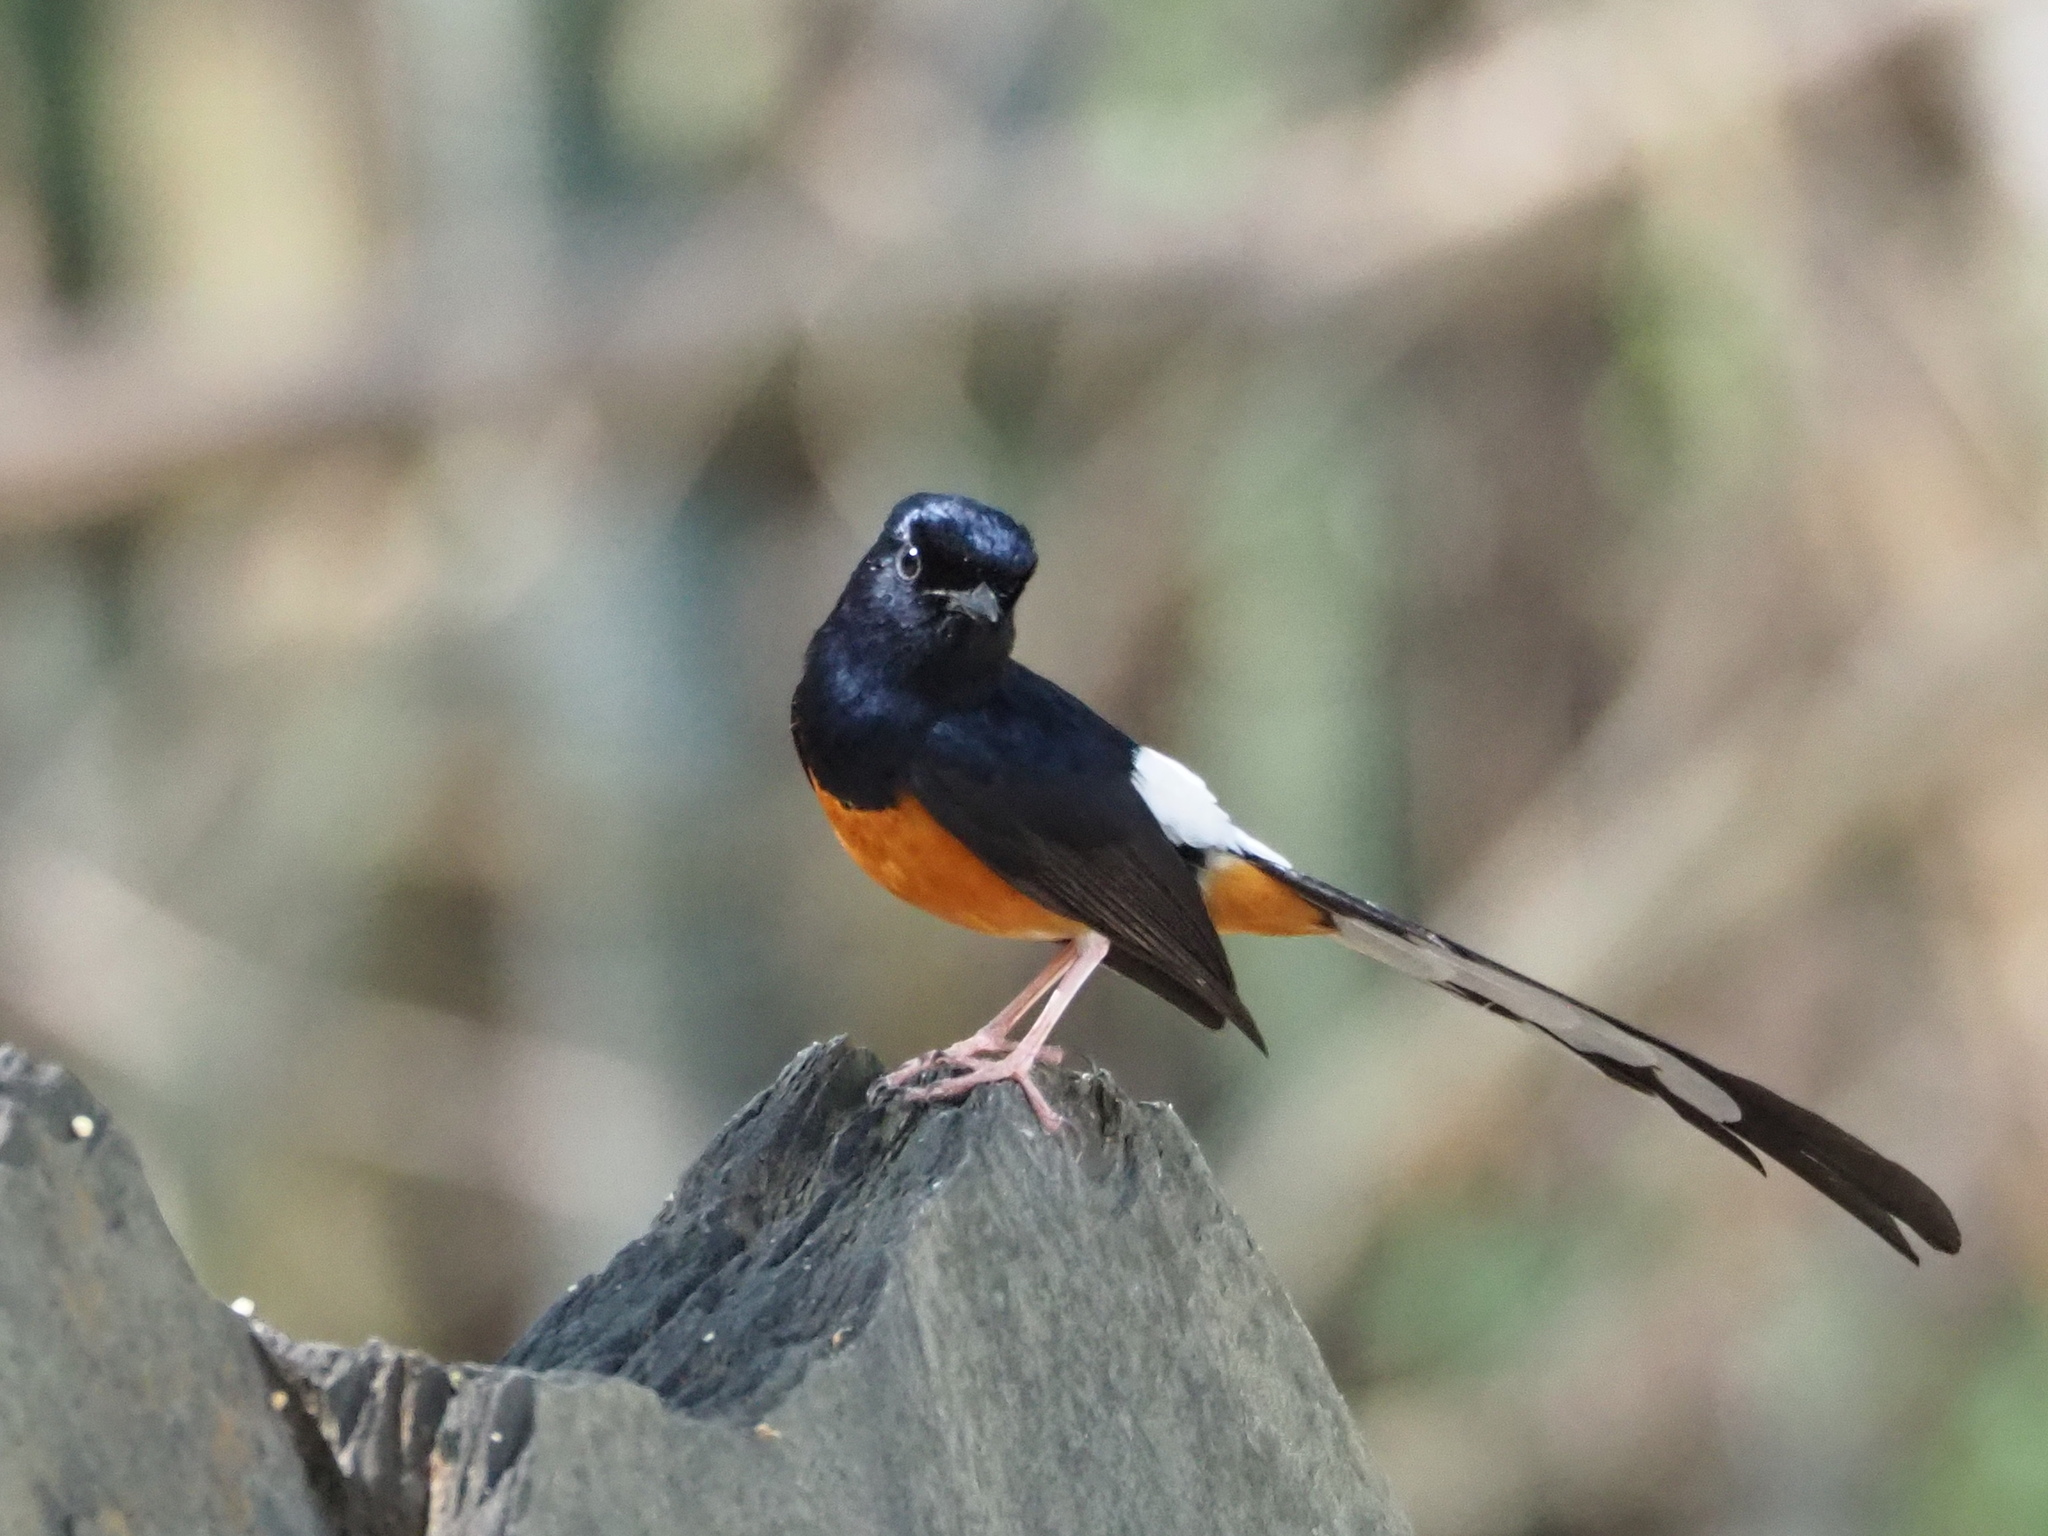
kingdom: Animalia
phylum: Chordata
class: Aves
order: Passeriformes
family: Muscicapidae
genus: Copsychus
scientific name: Copsychus malabaricus
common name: White-rumped shama
